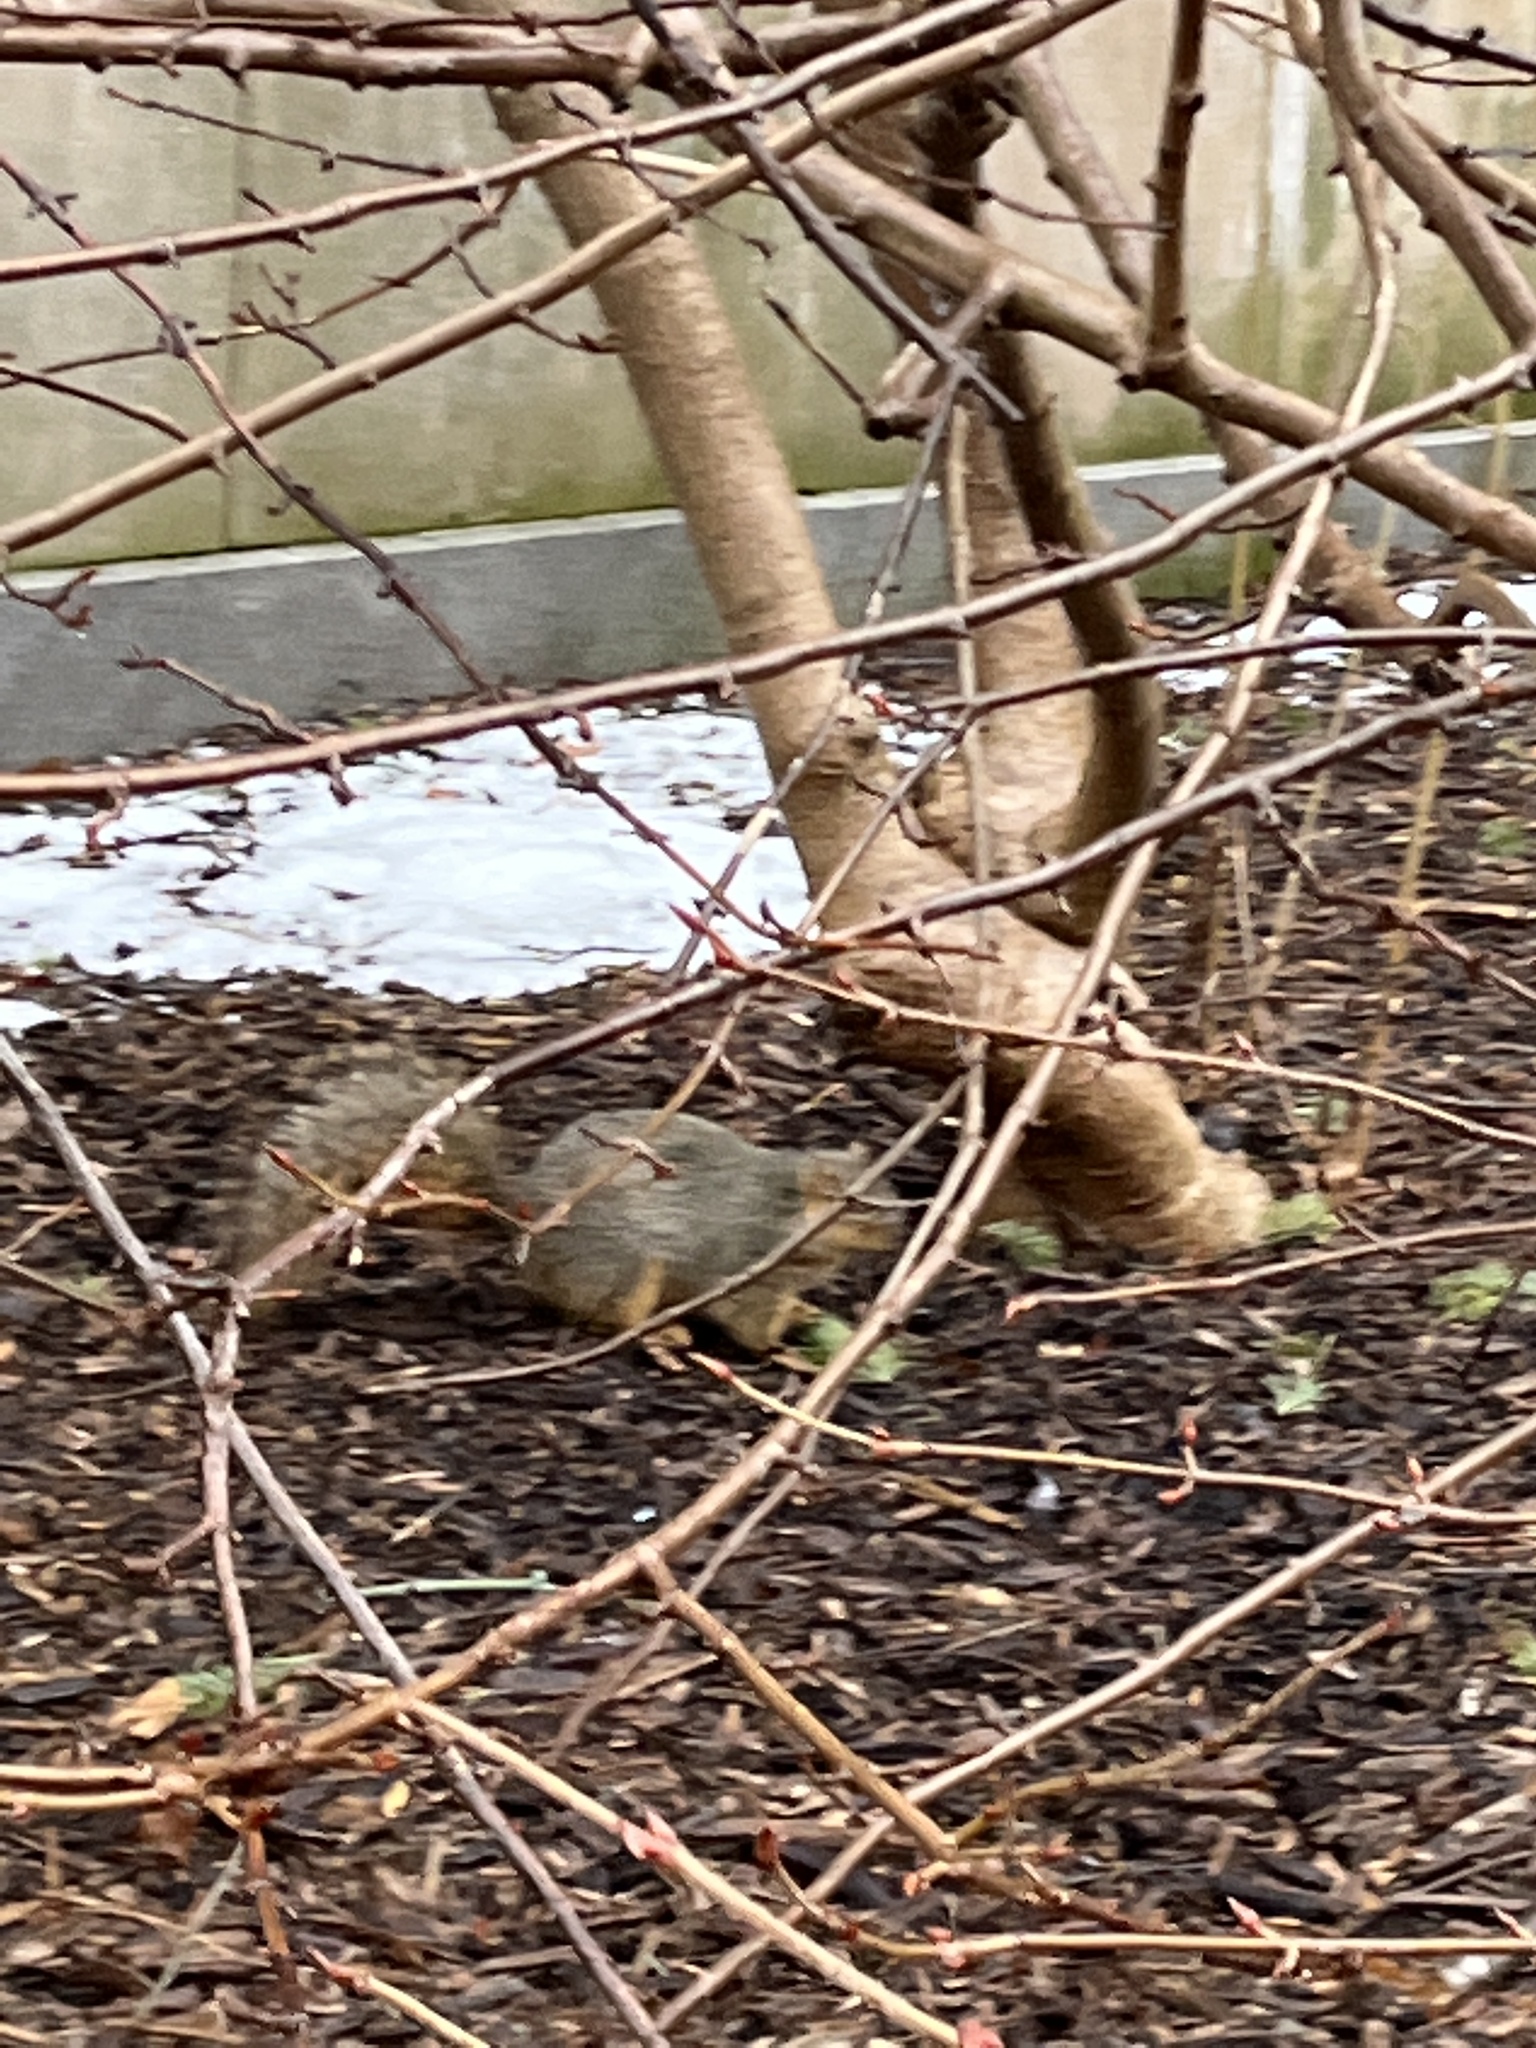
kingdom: Animalia
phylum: Chordata
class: Mammalia
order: Rodentia
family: Sciuridae
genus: Sciurus
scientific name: Sciurus niger
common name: Fox squirrel
